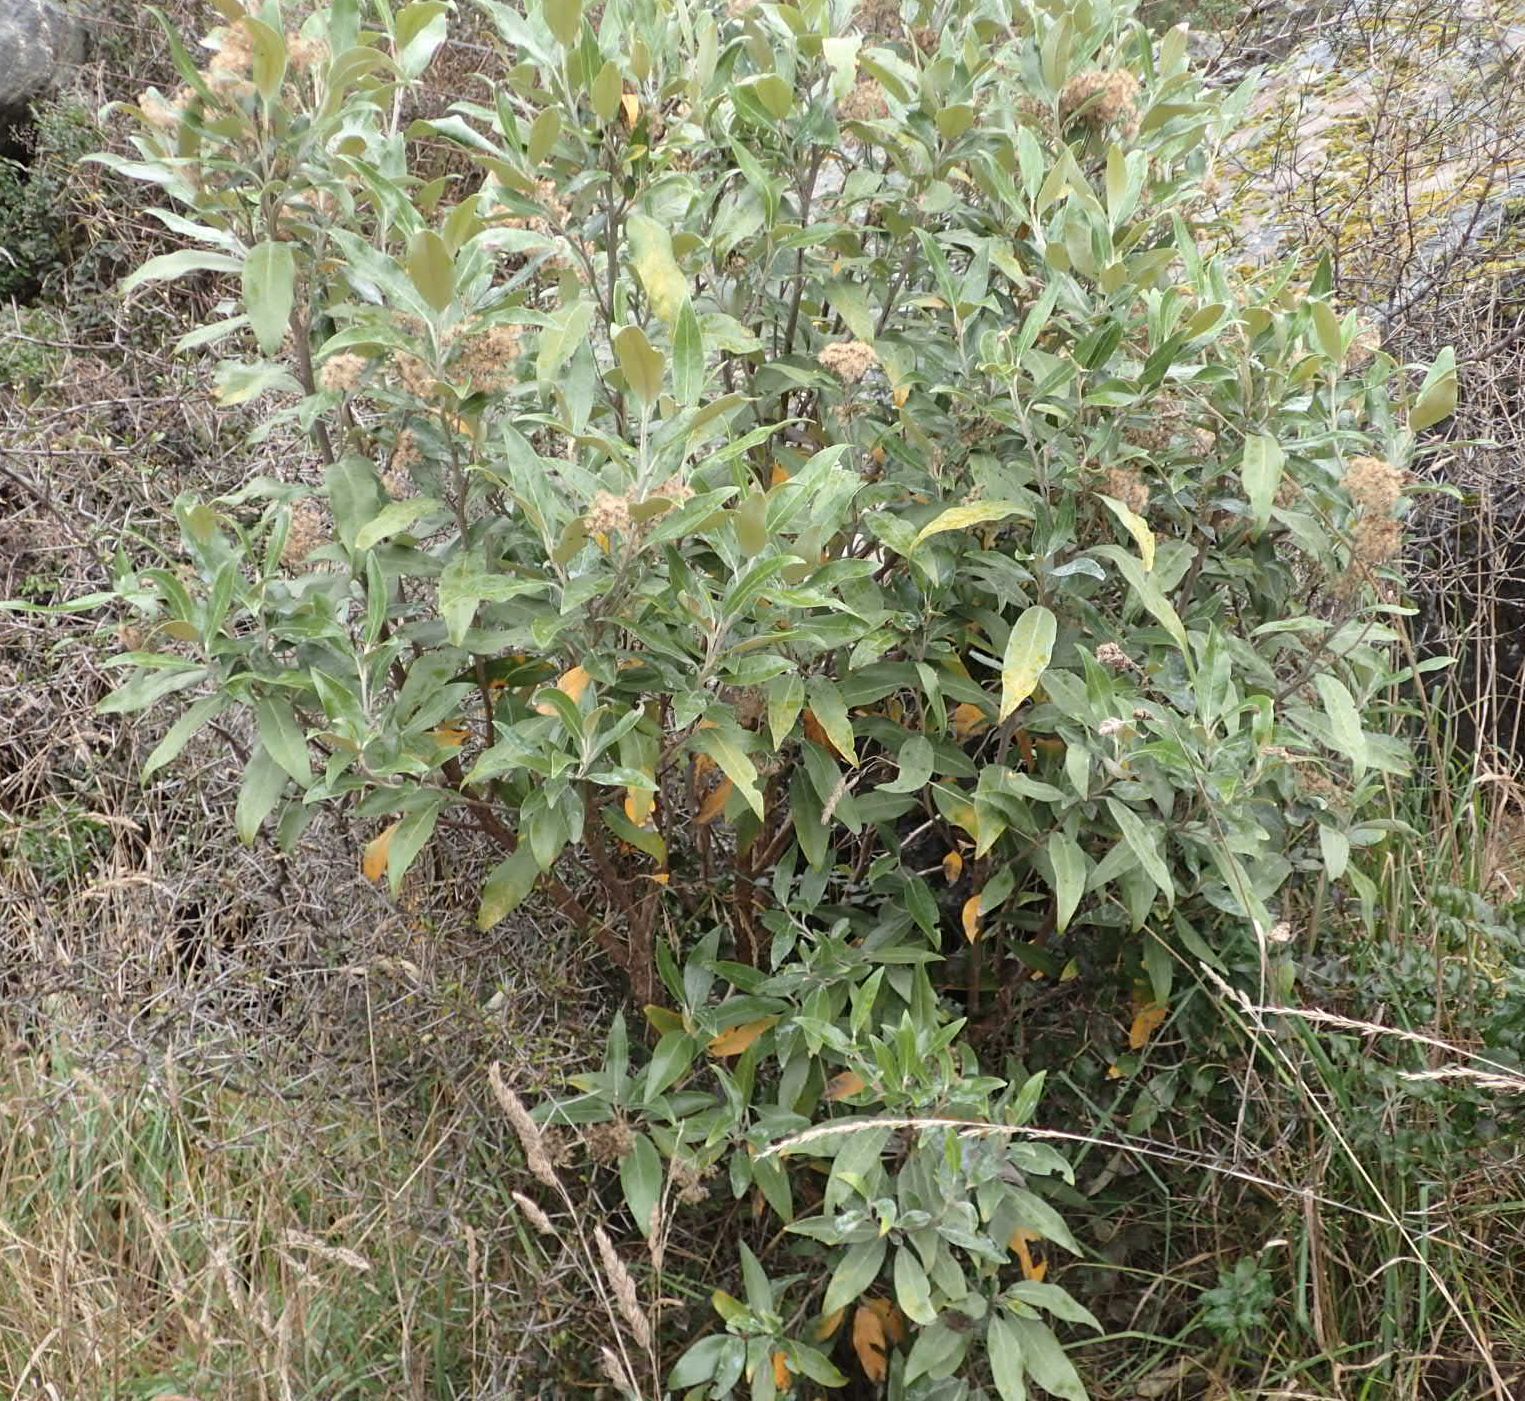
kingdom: Plantae
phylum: Tracheophyta
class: Magnoliopsida
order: Asterales
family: Asteraceae
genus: Olearia
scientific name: Olearia avicenniifolia
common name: Mangrove-leaf daisybush
